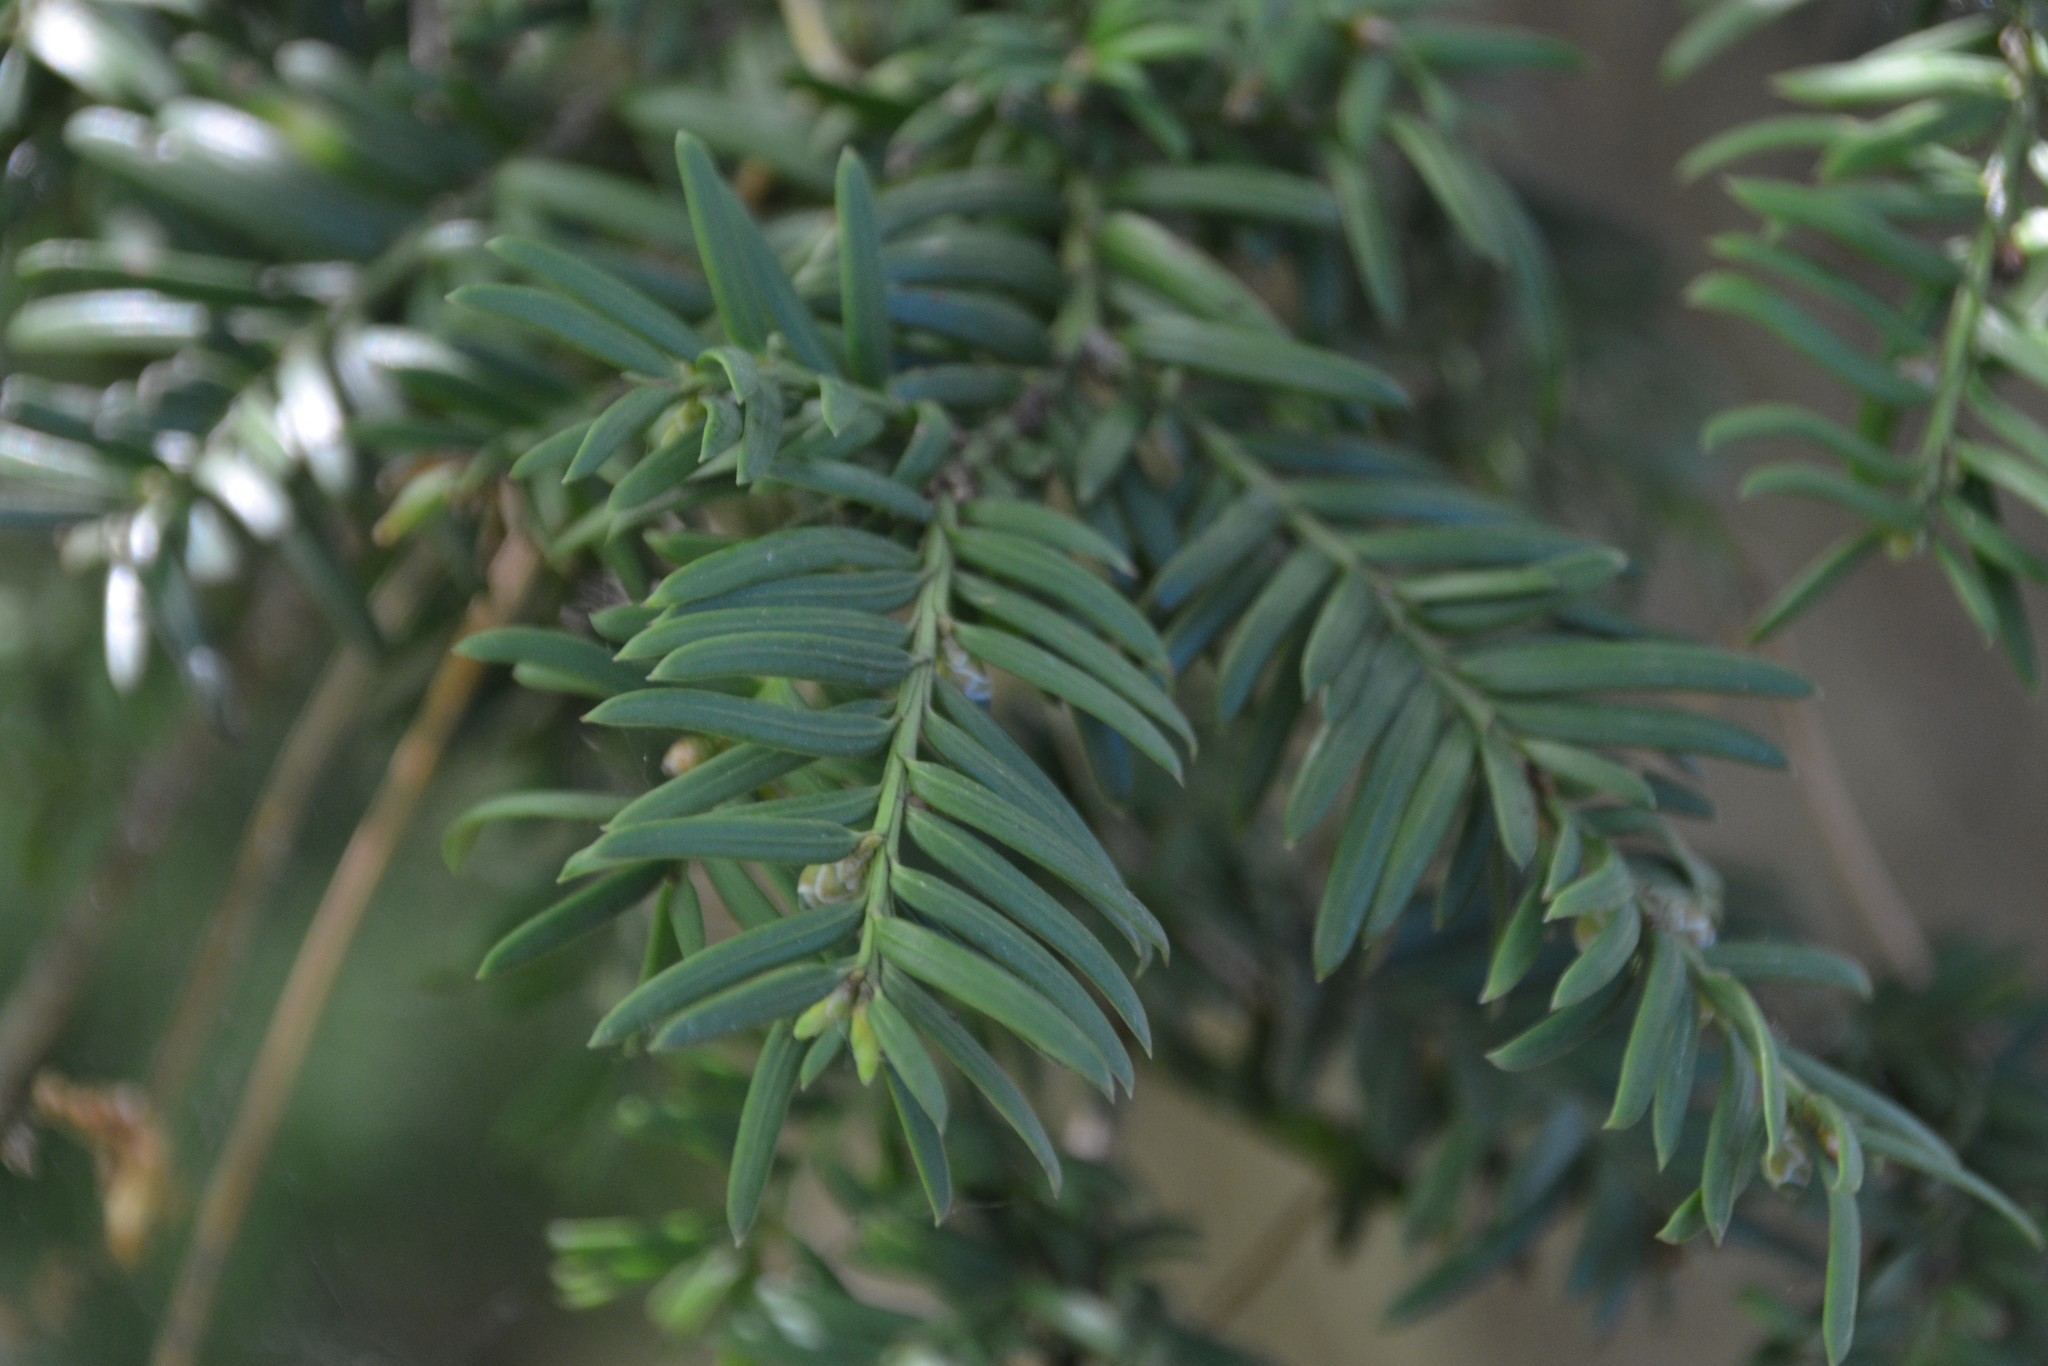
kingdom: Plantae
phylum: Tracheophyta
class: Pinopsida
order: Pinales
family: Taxaceae
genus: Taxus
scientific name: Taxus baccata
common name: Yew
